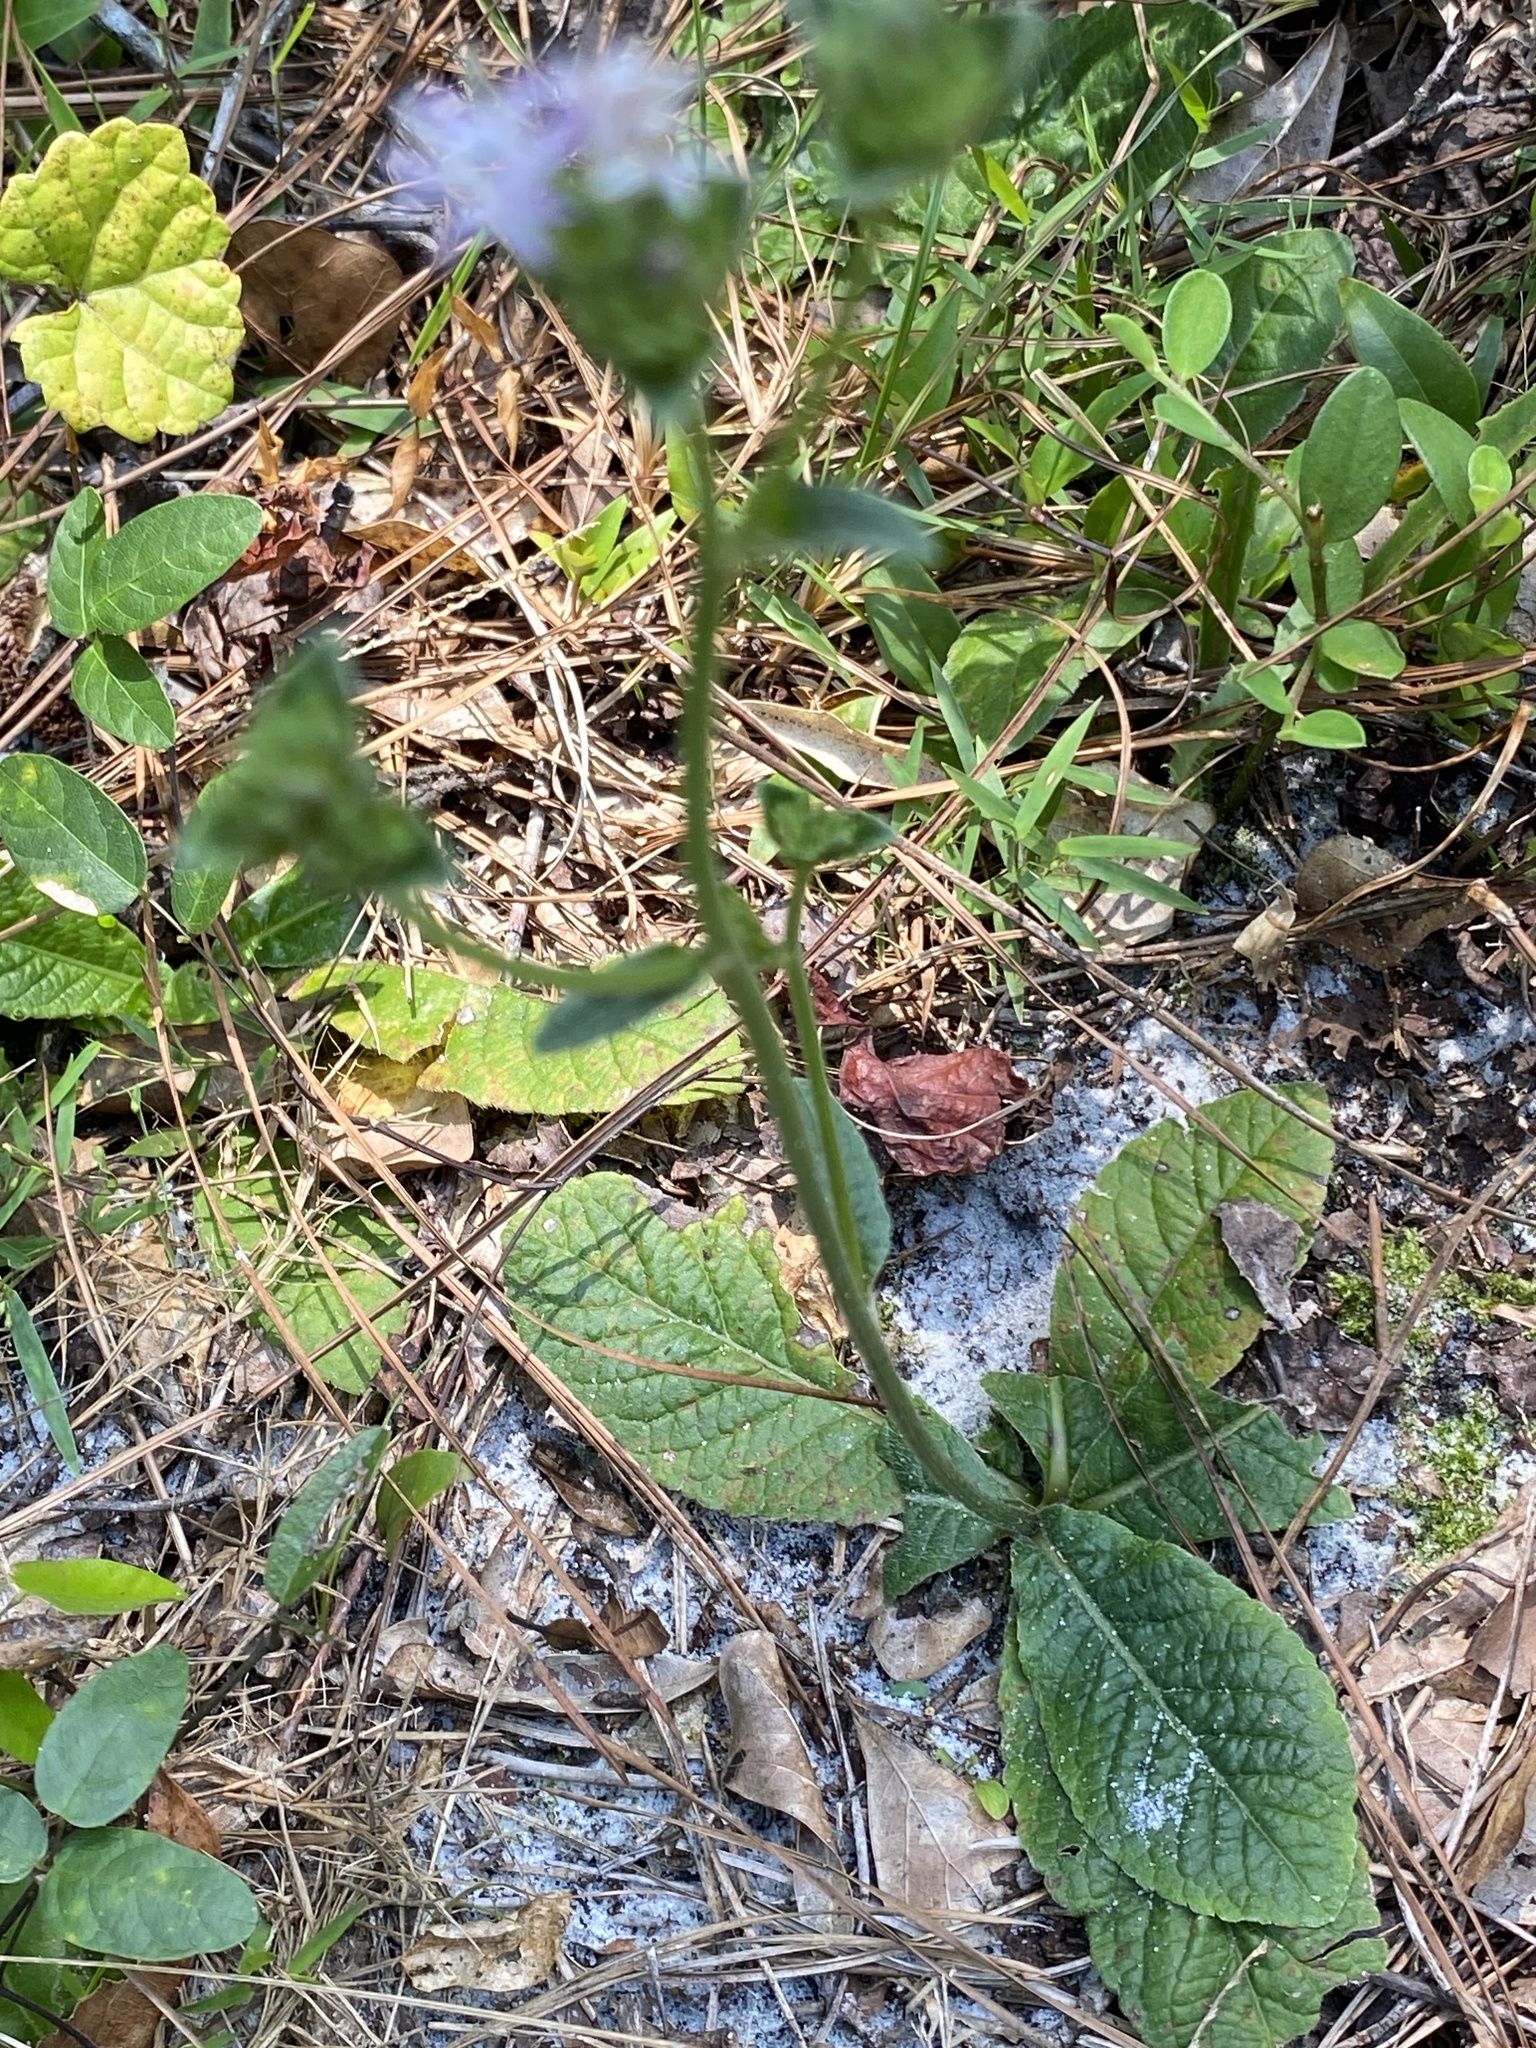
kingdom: Plantae
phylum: Tracheophyta
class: Magnoliopsida
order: Asterales
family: Asteraceae
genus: Elephantopus
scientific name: Elephantopus elatus
